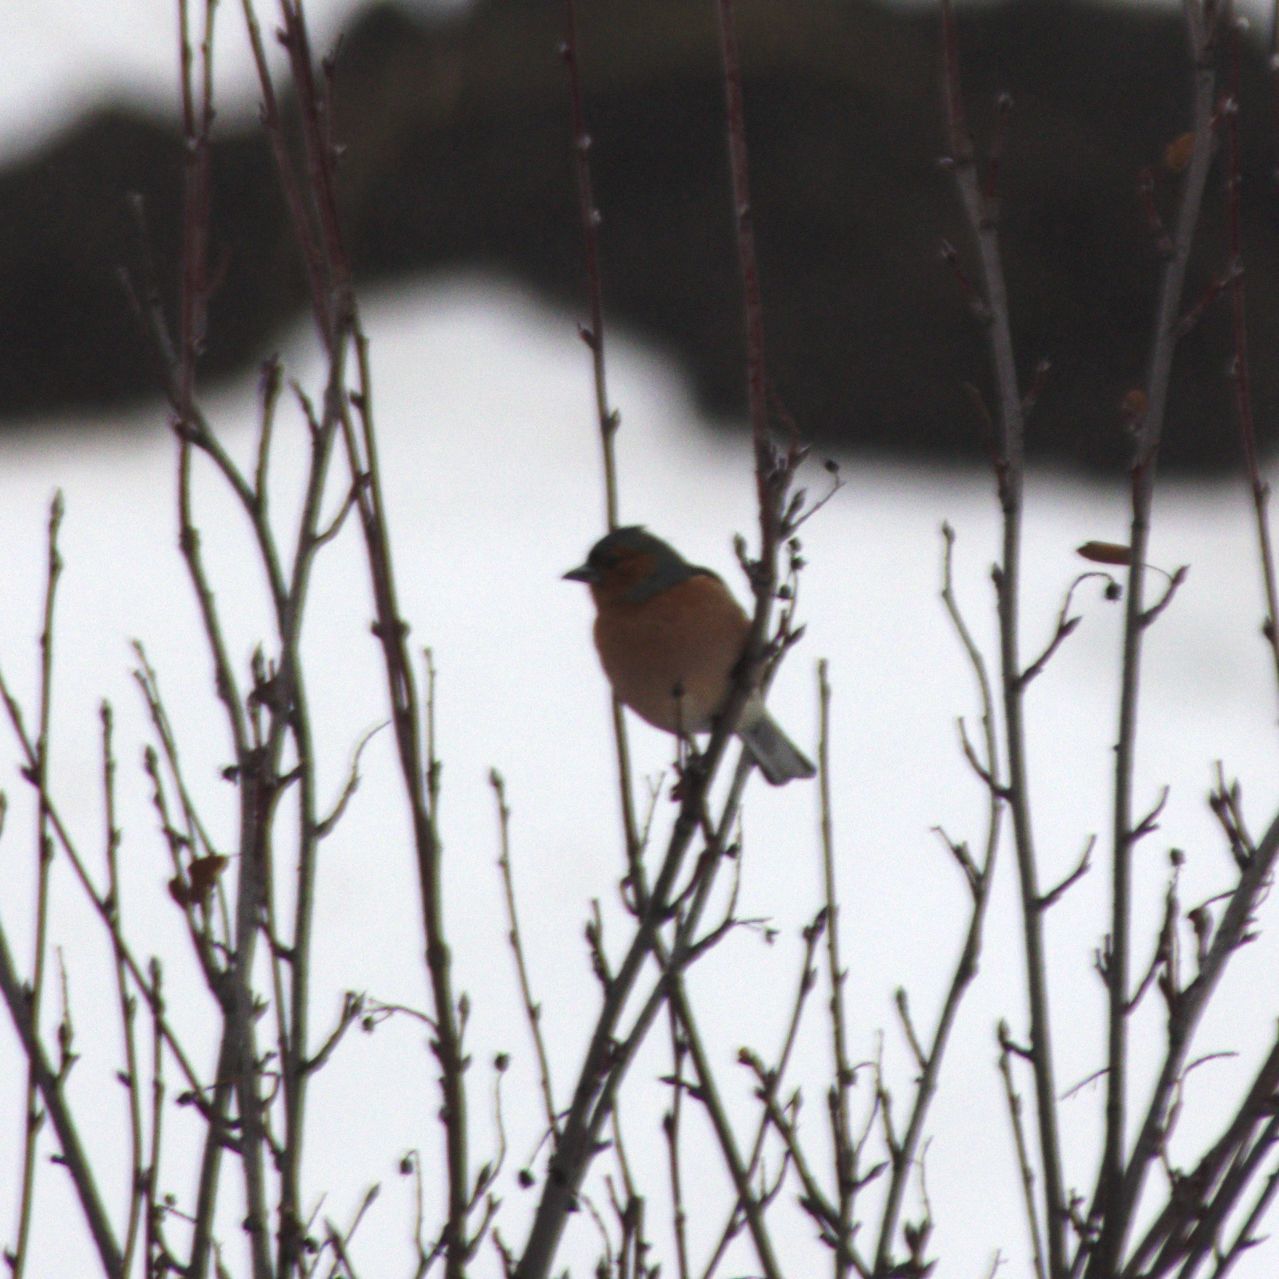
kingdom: Animalia
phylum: Chordata
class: Aves
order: Passeriformes
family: Fringillidae
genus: Fringilla
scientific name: Fringilla coelebs
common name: Common chaffinch
